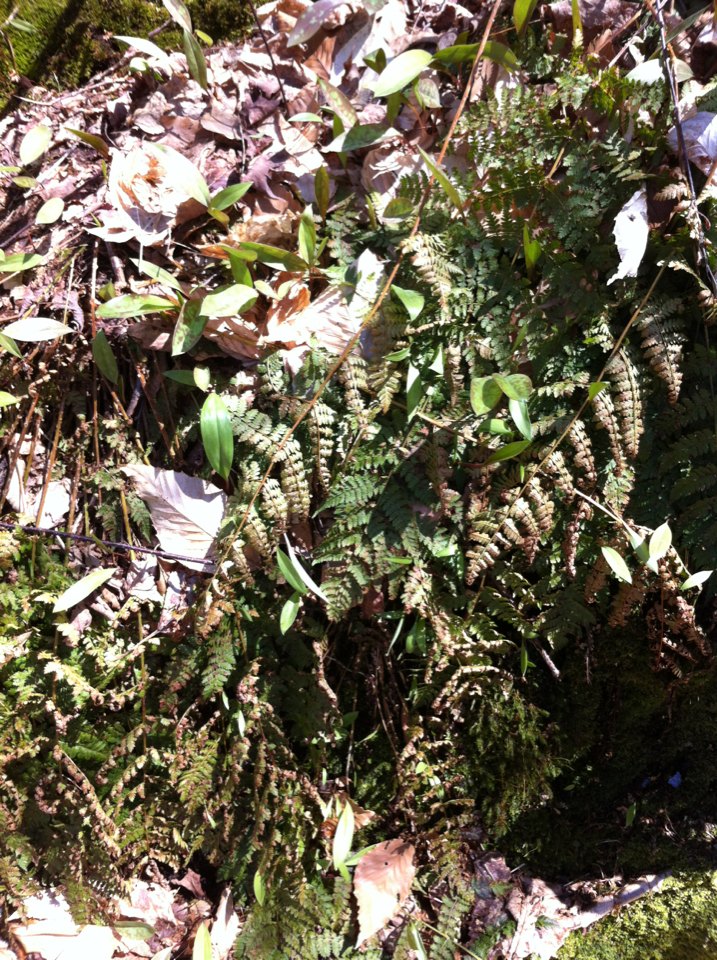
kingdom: Plantae
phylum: Tracheophyta
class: Polypodiopsida
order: Polypodiales
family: Dryopteridaceae
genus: Dryopteris
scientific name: Dryopteris intermedia
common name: Evergreen wood fern
